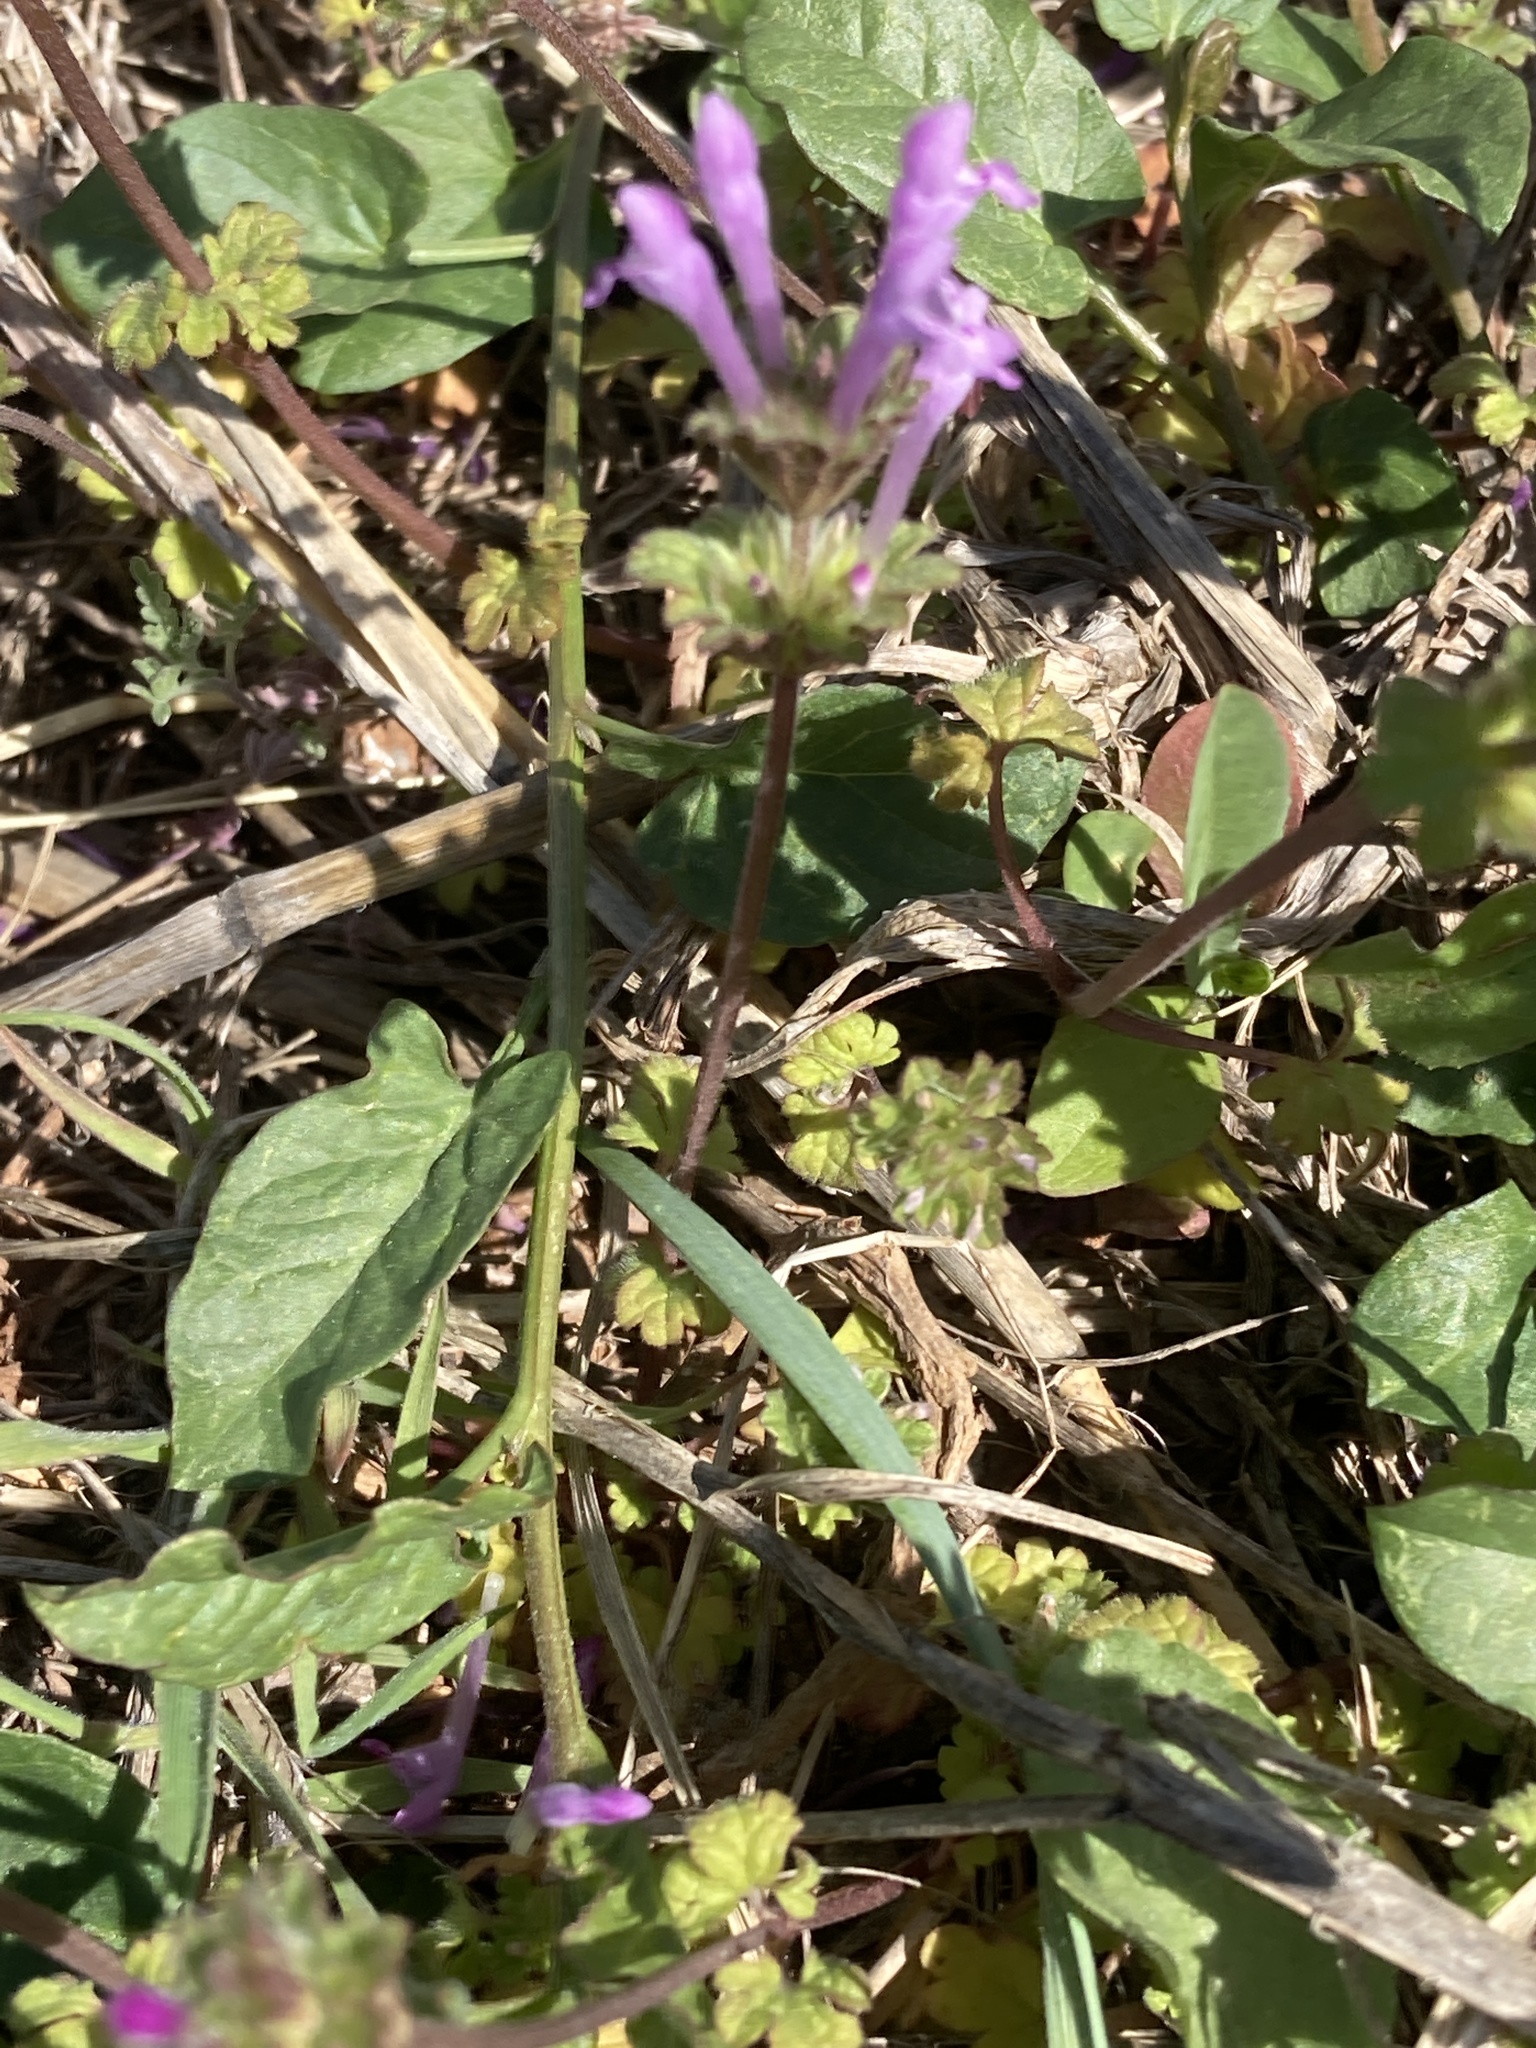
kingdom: Plantae
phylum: Tracheophyta
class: Magnoliopsida
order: Lamiales
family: Lamiaceae
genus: Lamium
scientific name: Lamium amplexicaule
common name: Henbit dead-nettle
